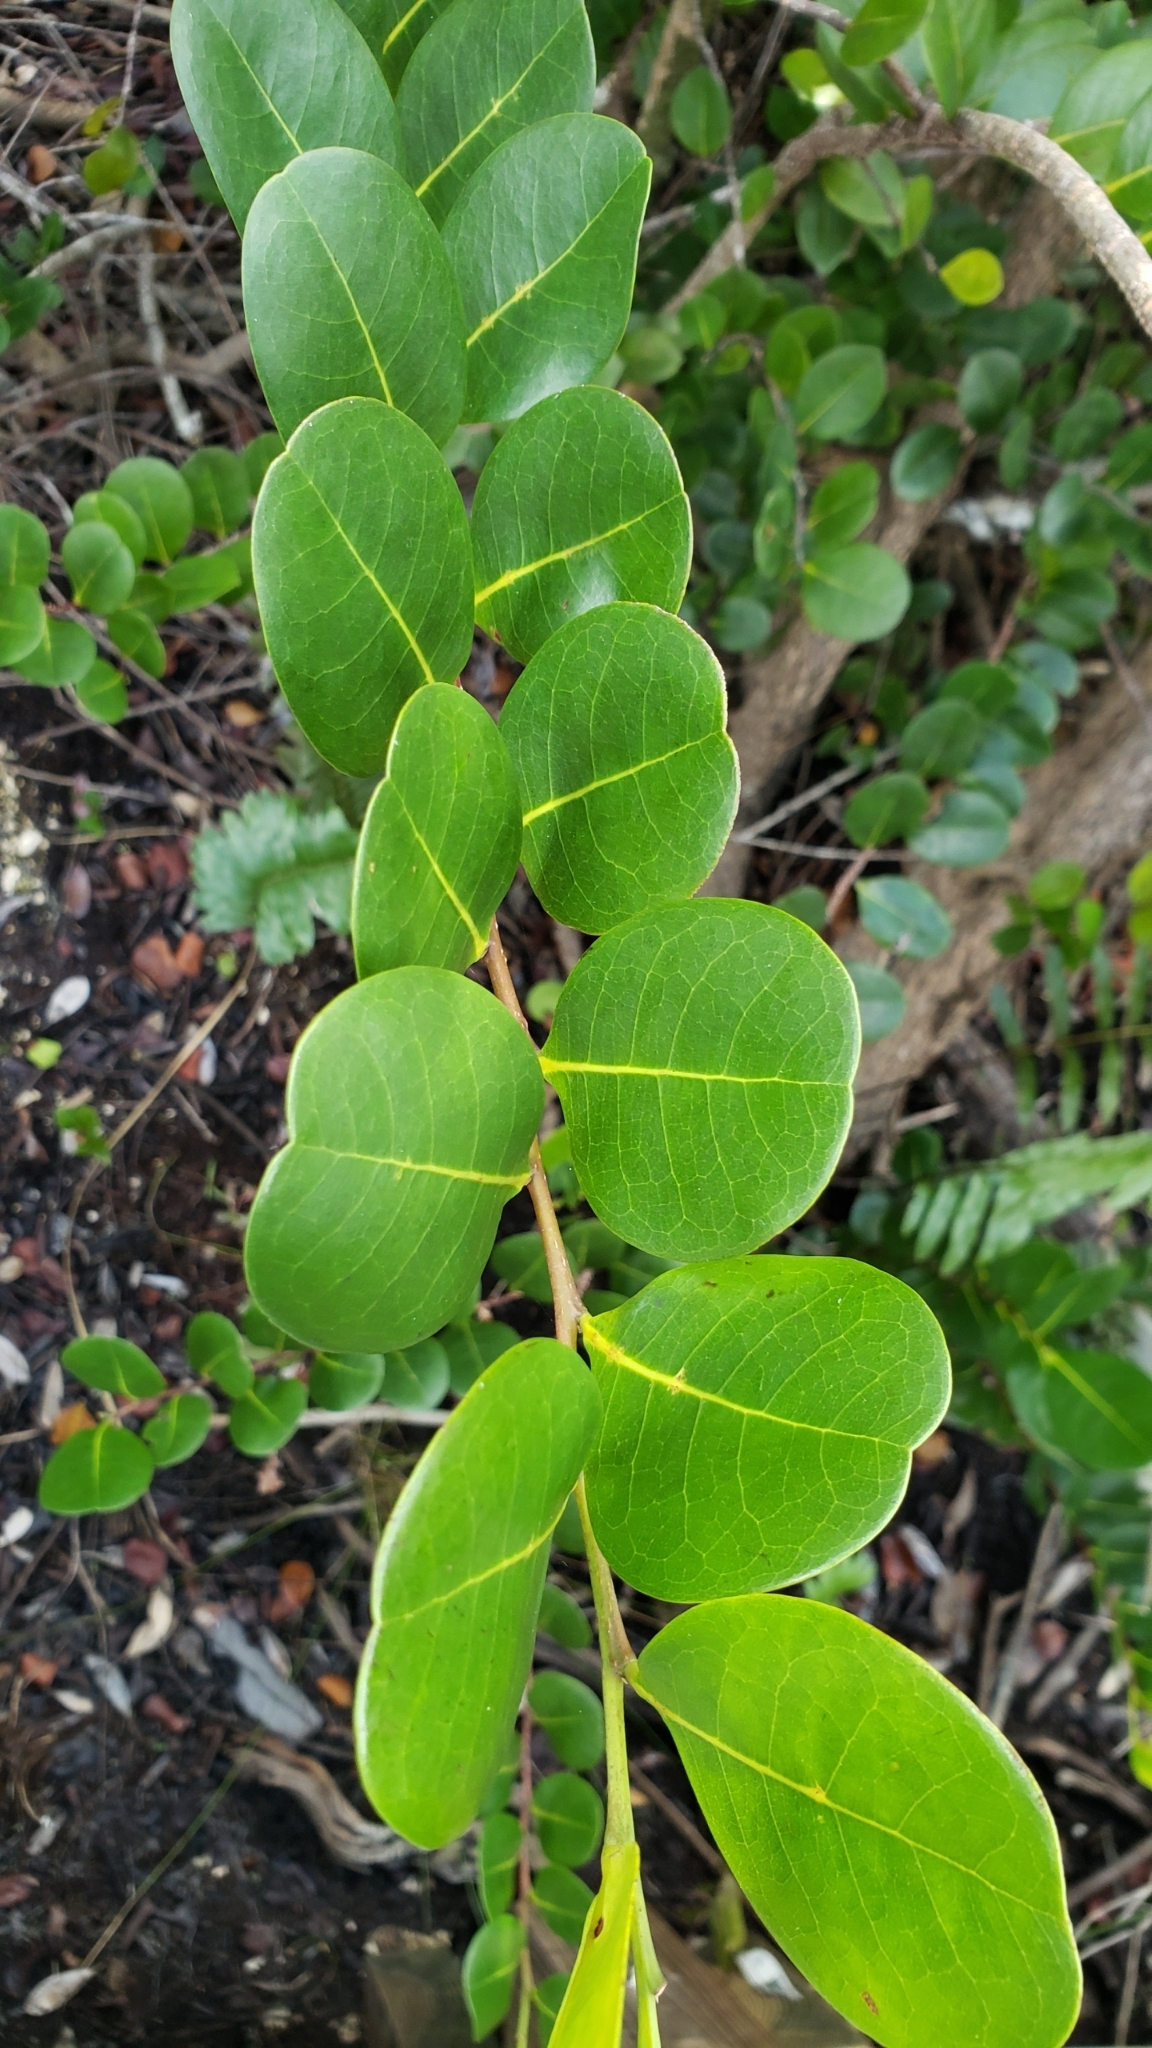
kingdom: Plantae
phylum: Tracheophyta
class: Magnoliopsida
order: Malpighiales
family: Chrysobalanaceae
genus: Chrysobalanus
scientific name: Chrysobalanus icaco
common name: Coco plum
